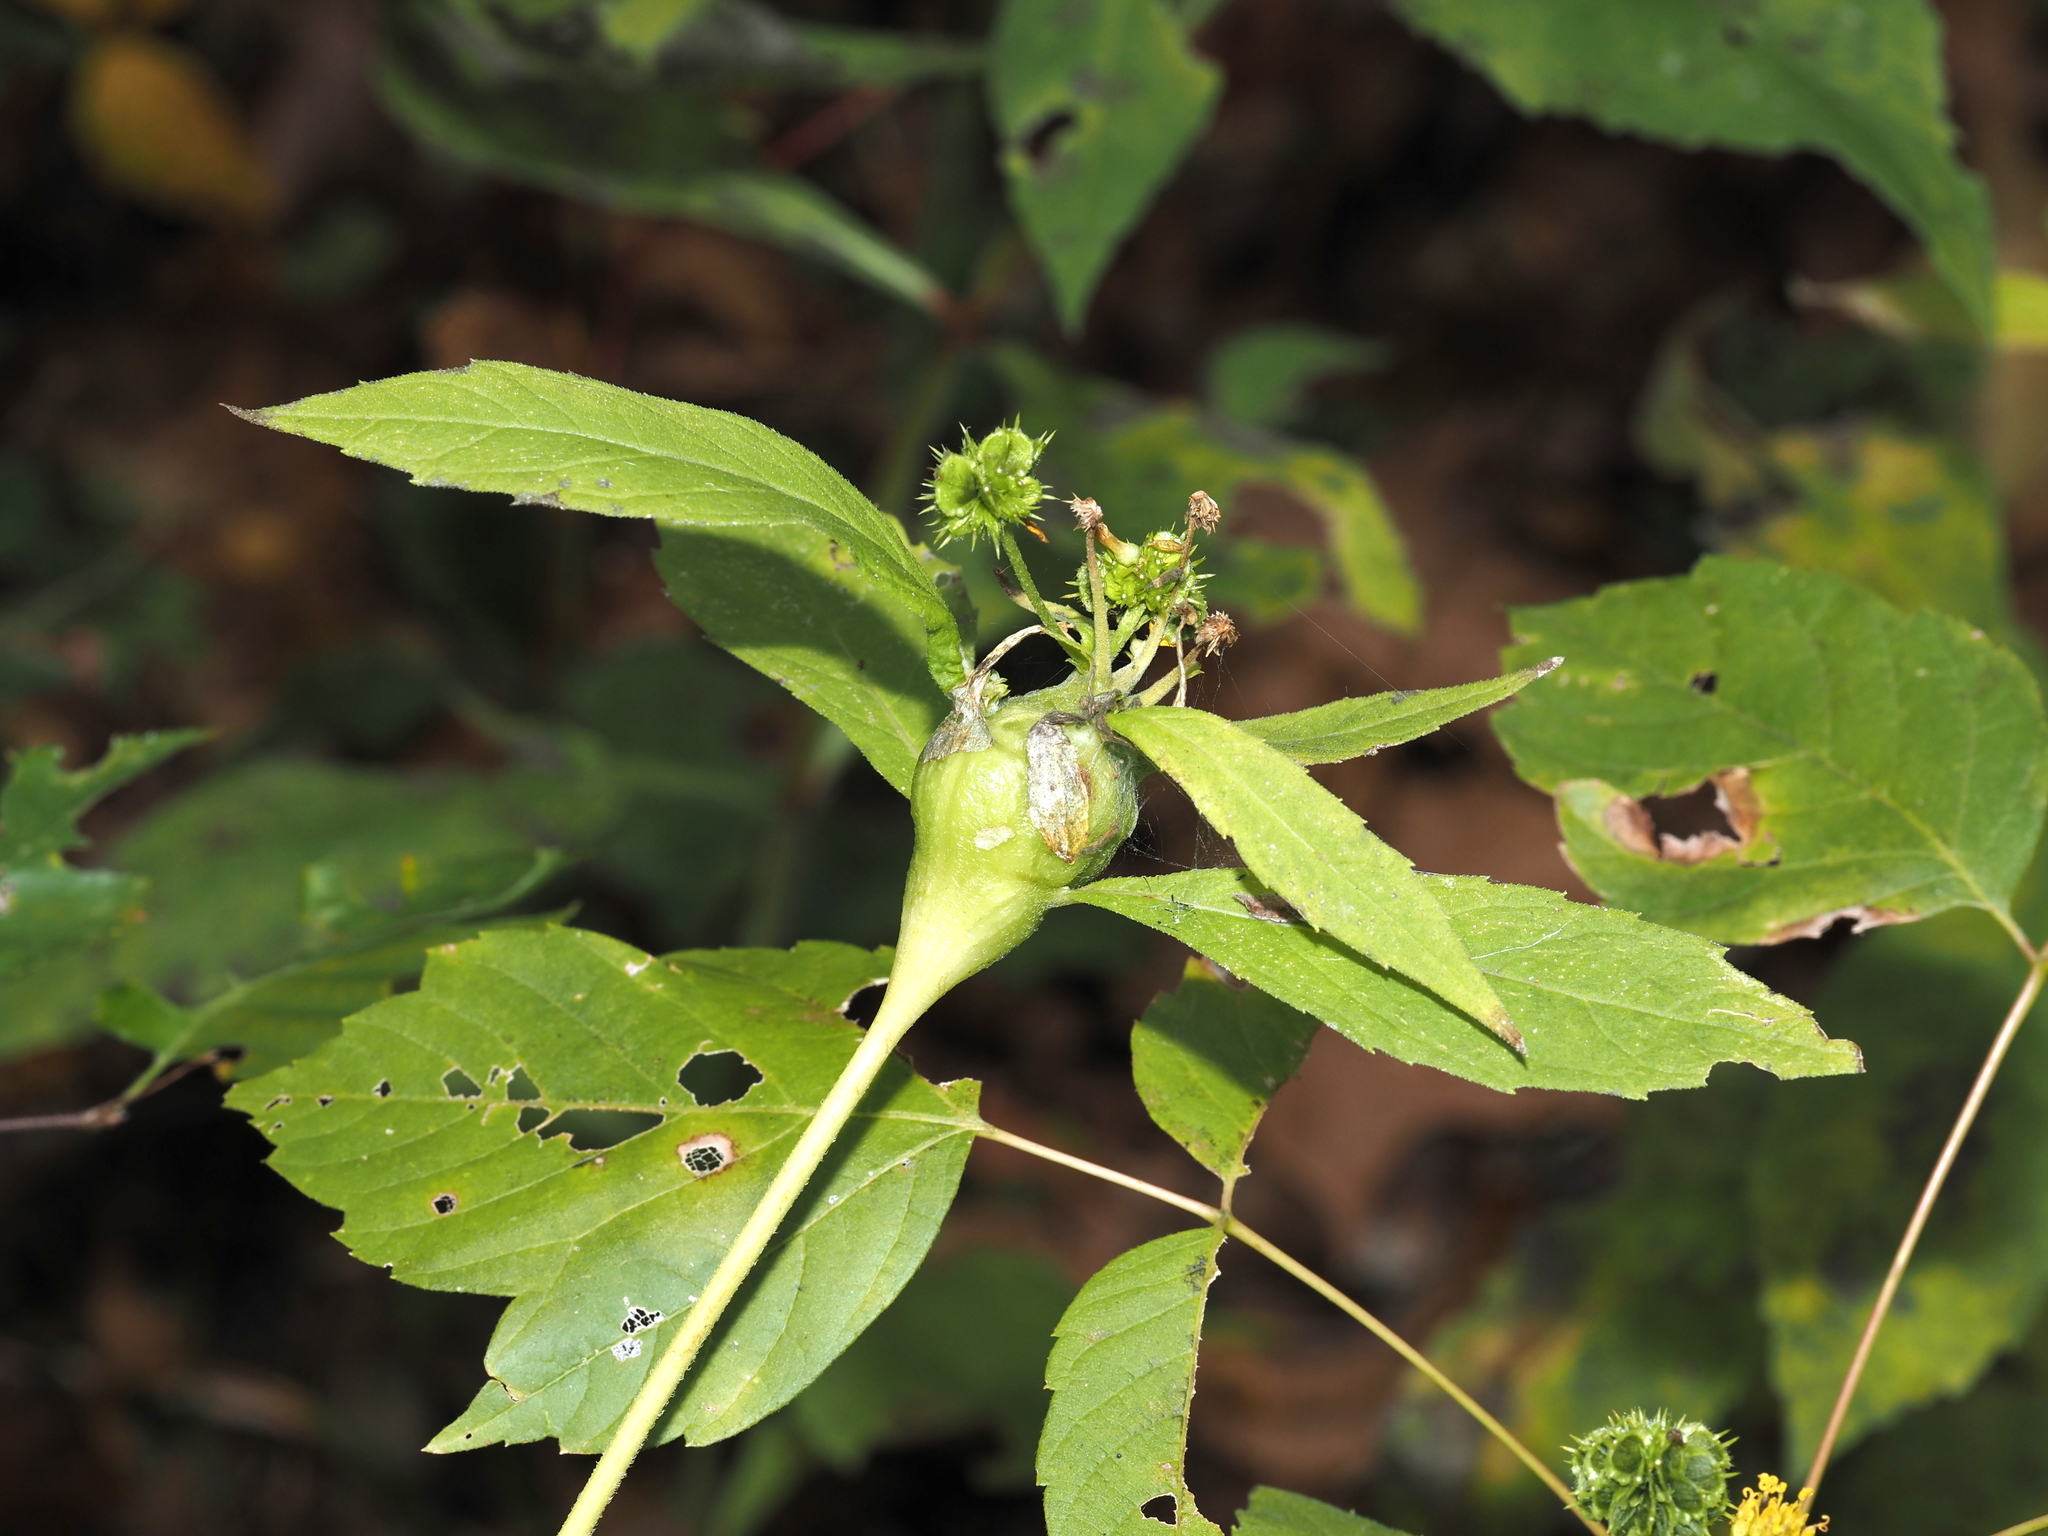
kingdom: Animalia
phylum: Arthropoda
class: Insecta
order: Diptera
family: Cecidomyiidae
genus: Neolasioptera
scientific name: Neolasioptera verbesinae
